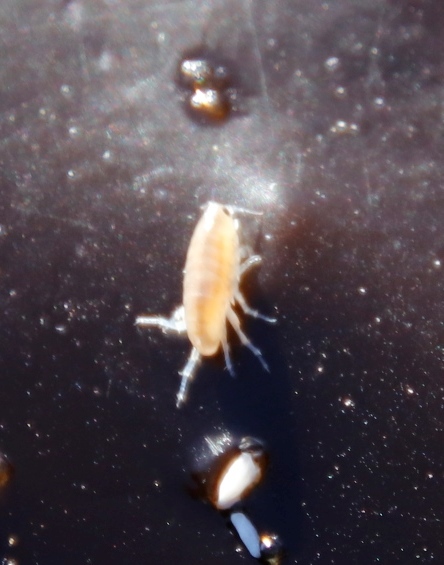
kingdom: Animalia
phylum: Arthropoda
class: Malacostraca
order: Amphipoda
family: Talitridae
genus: Capeorchestia
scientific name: Capeorchestia capensis
